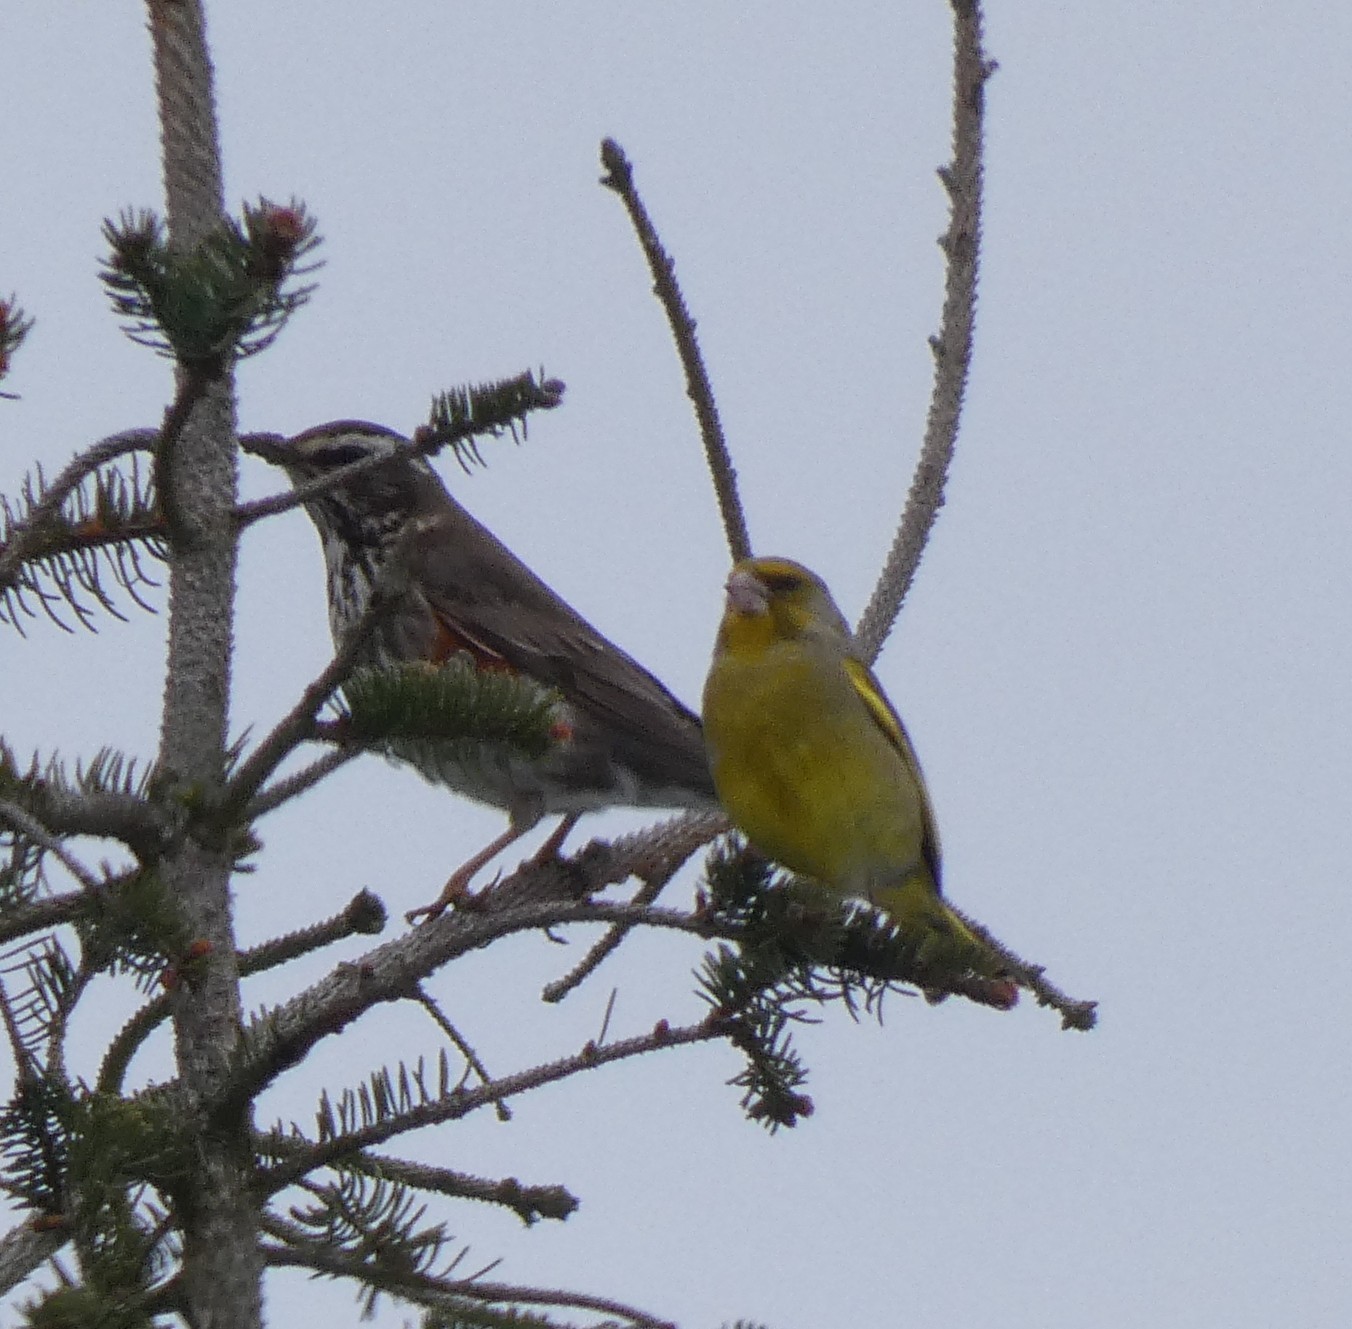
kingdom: Animalia
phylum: Chordata
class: Aves
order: Passeriformes
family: Turdidae
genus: Turdus
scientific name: Turdus iliacus
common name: Redwing
